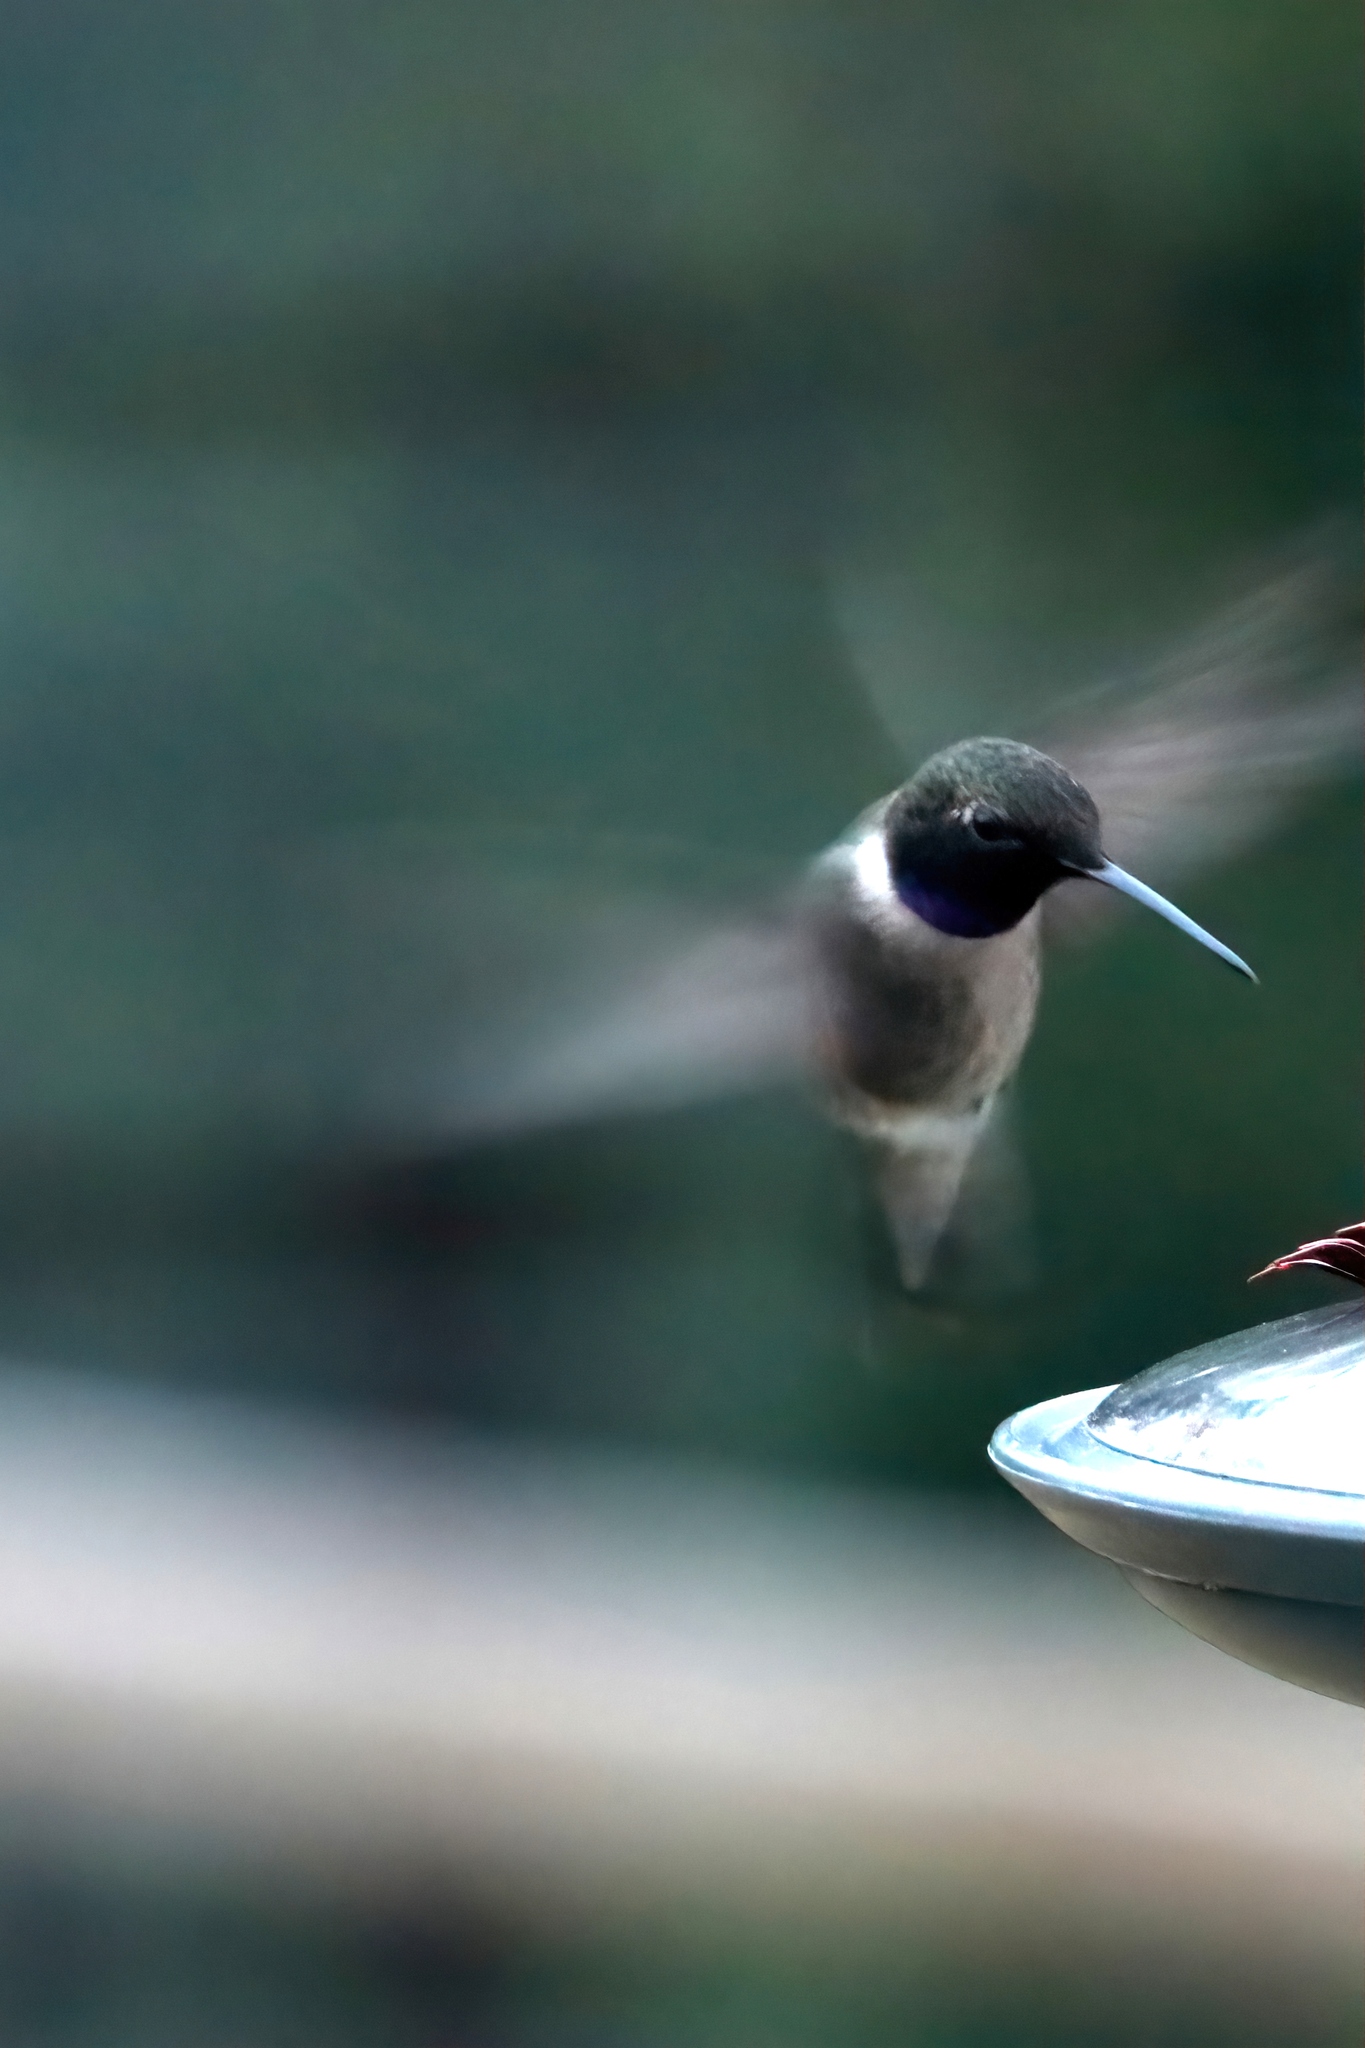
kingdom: Animalia
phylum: Chordata
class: Aves
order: Apodiformes
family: Trochilidae
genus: Archilochus
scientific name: Archilochus alexandri
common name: Black-chinned hummingbird
